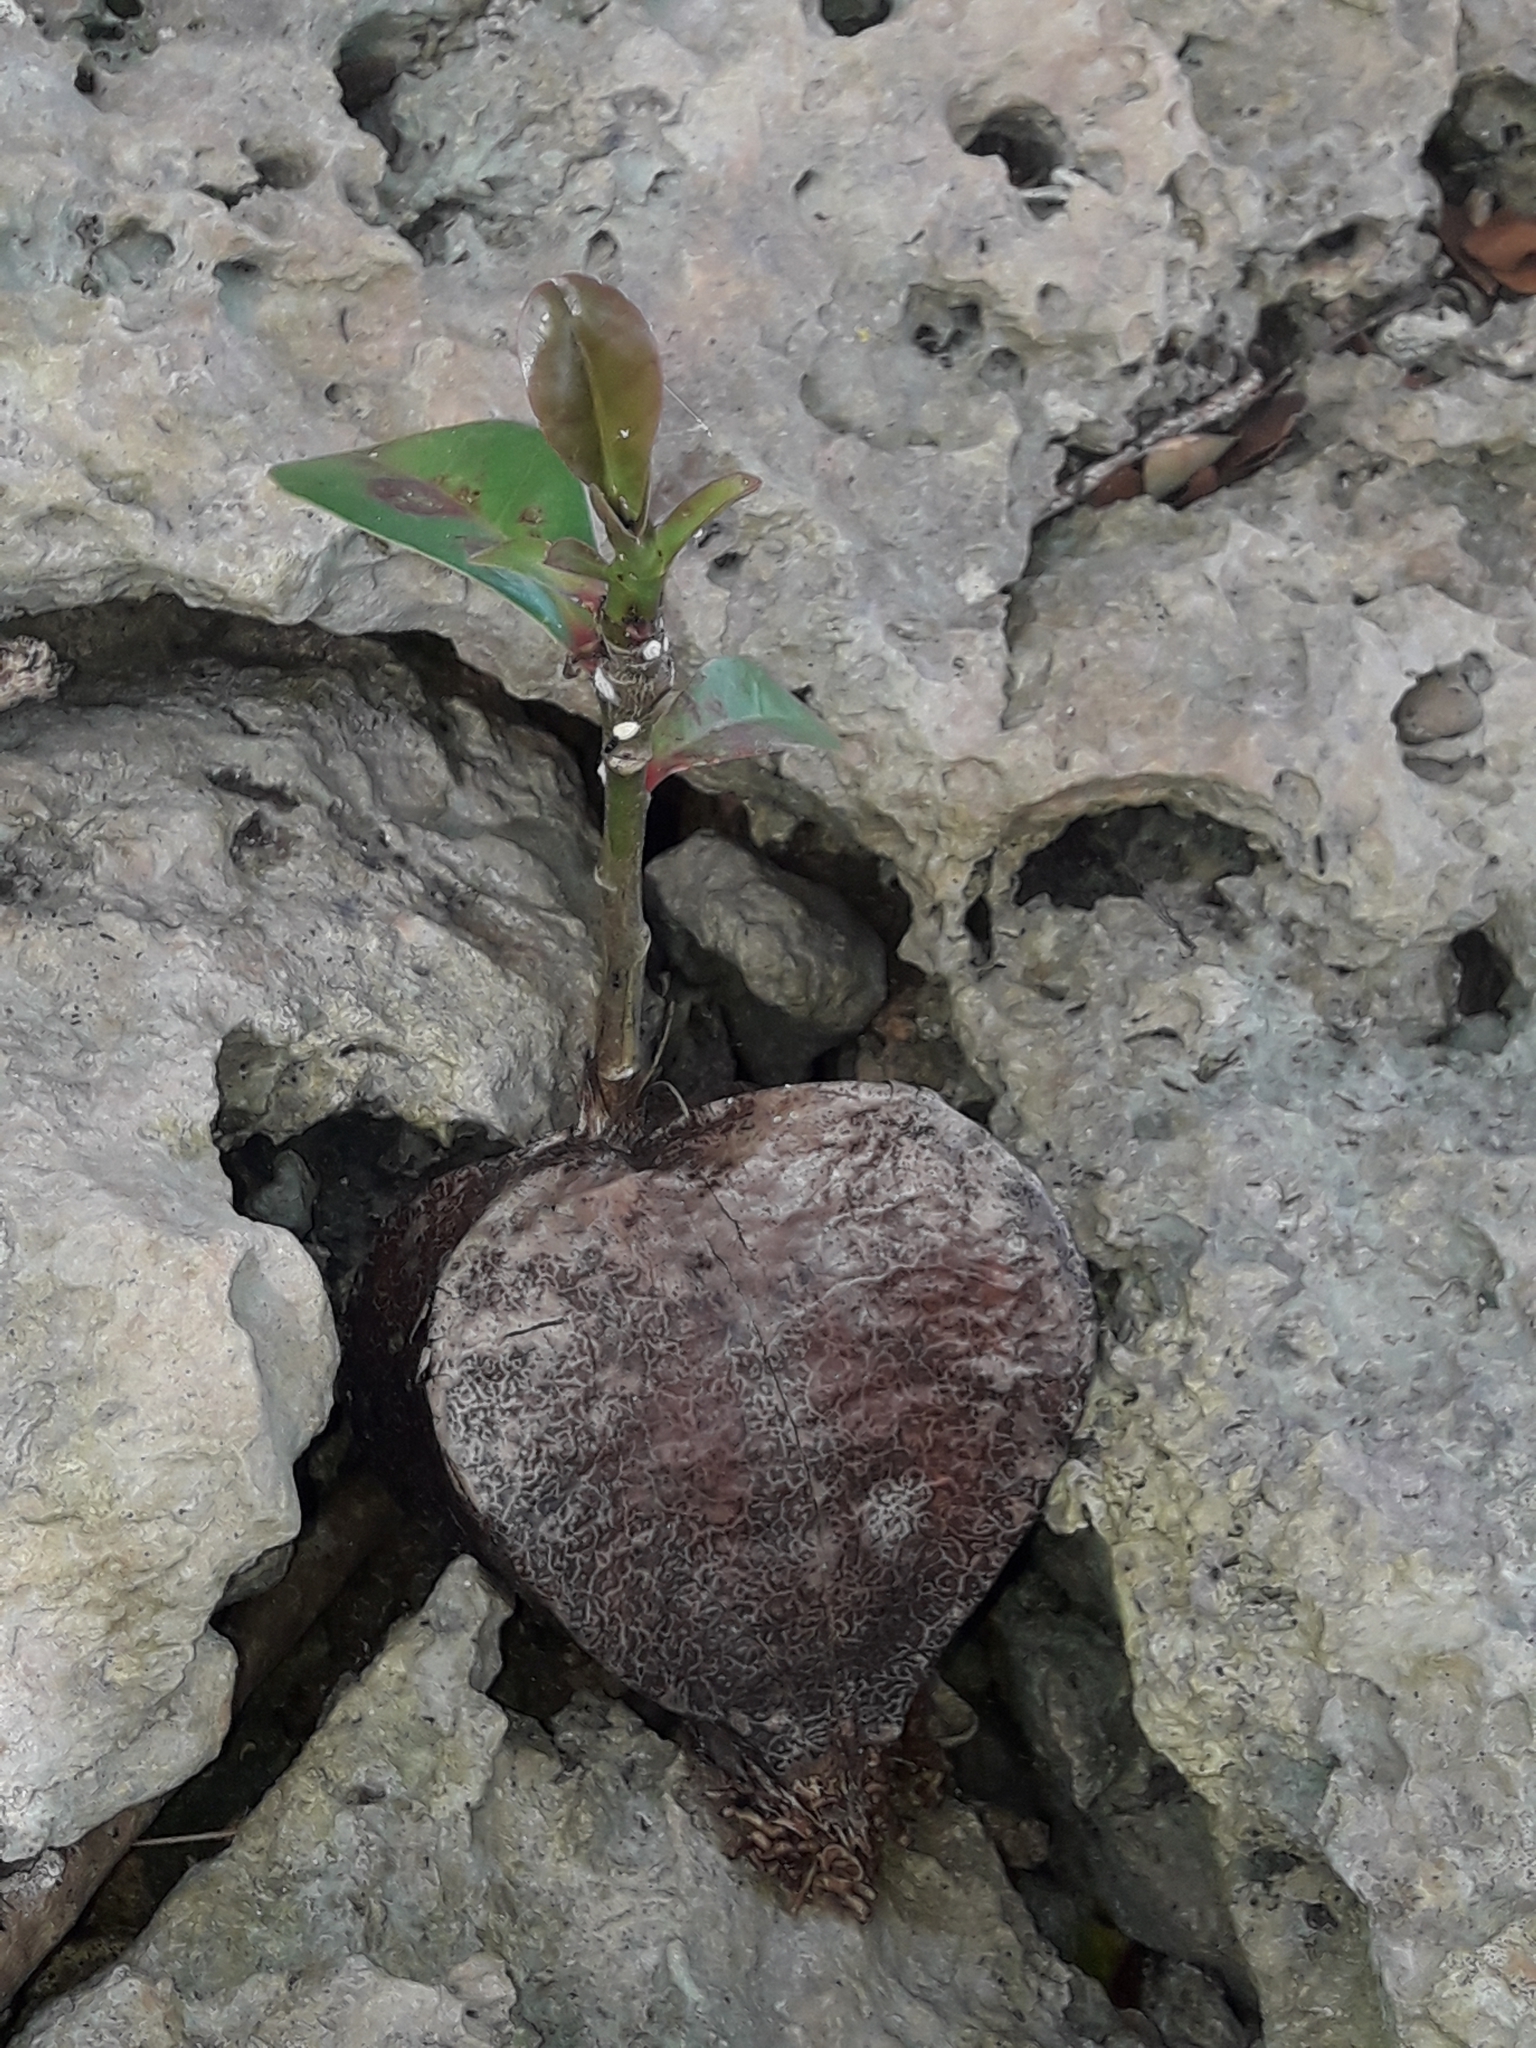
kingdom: Plantae
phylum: Tracheophyta
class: Magnoliopsida
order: Ericales
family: Lecythidaceae
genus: Barringtonia
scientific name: Barringtonia asiatica
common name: Mango-pine
